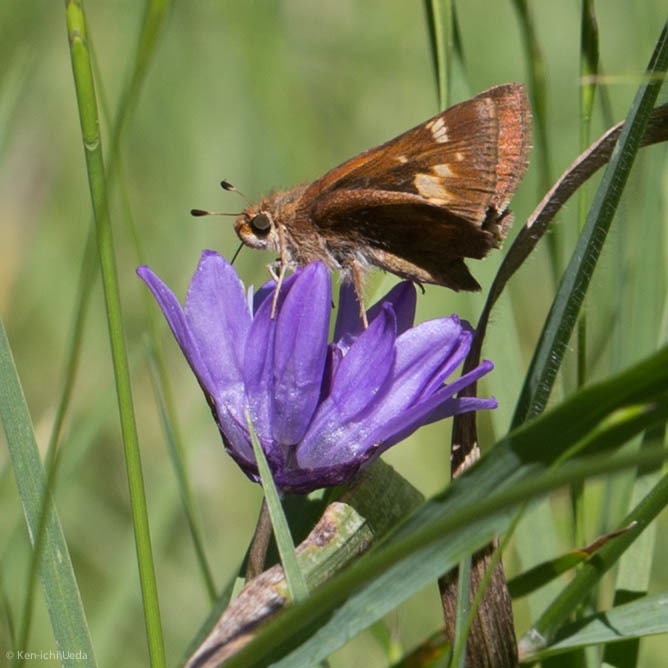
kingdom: Animalia
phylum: Arthropoda
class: Insecta
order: Lepidoptera
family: Hesperiidae
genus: Lon
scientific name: Lon melane
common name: Umber skipper
